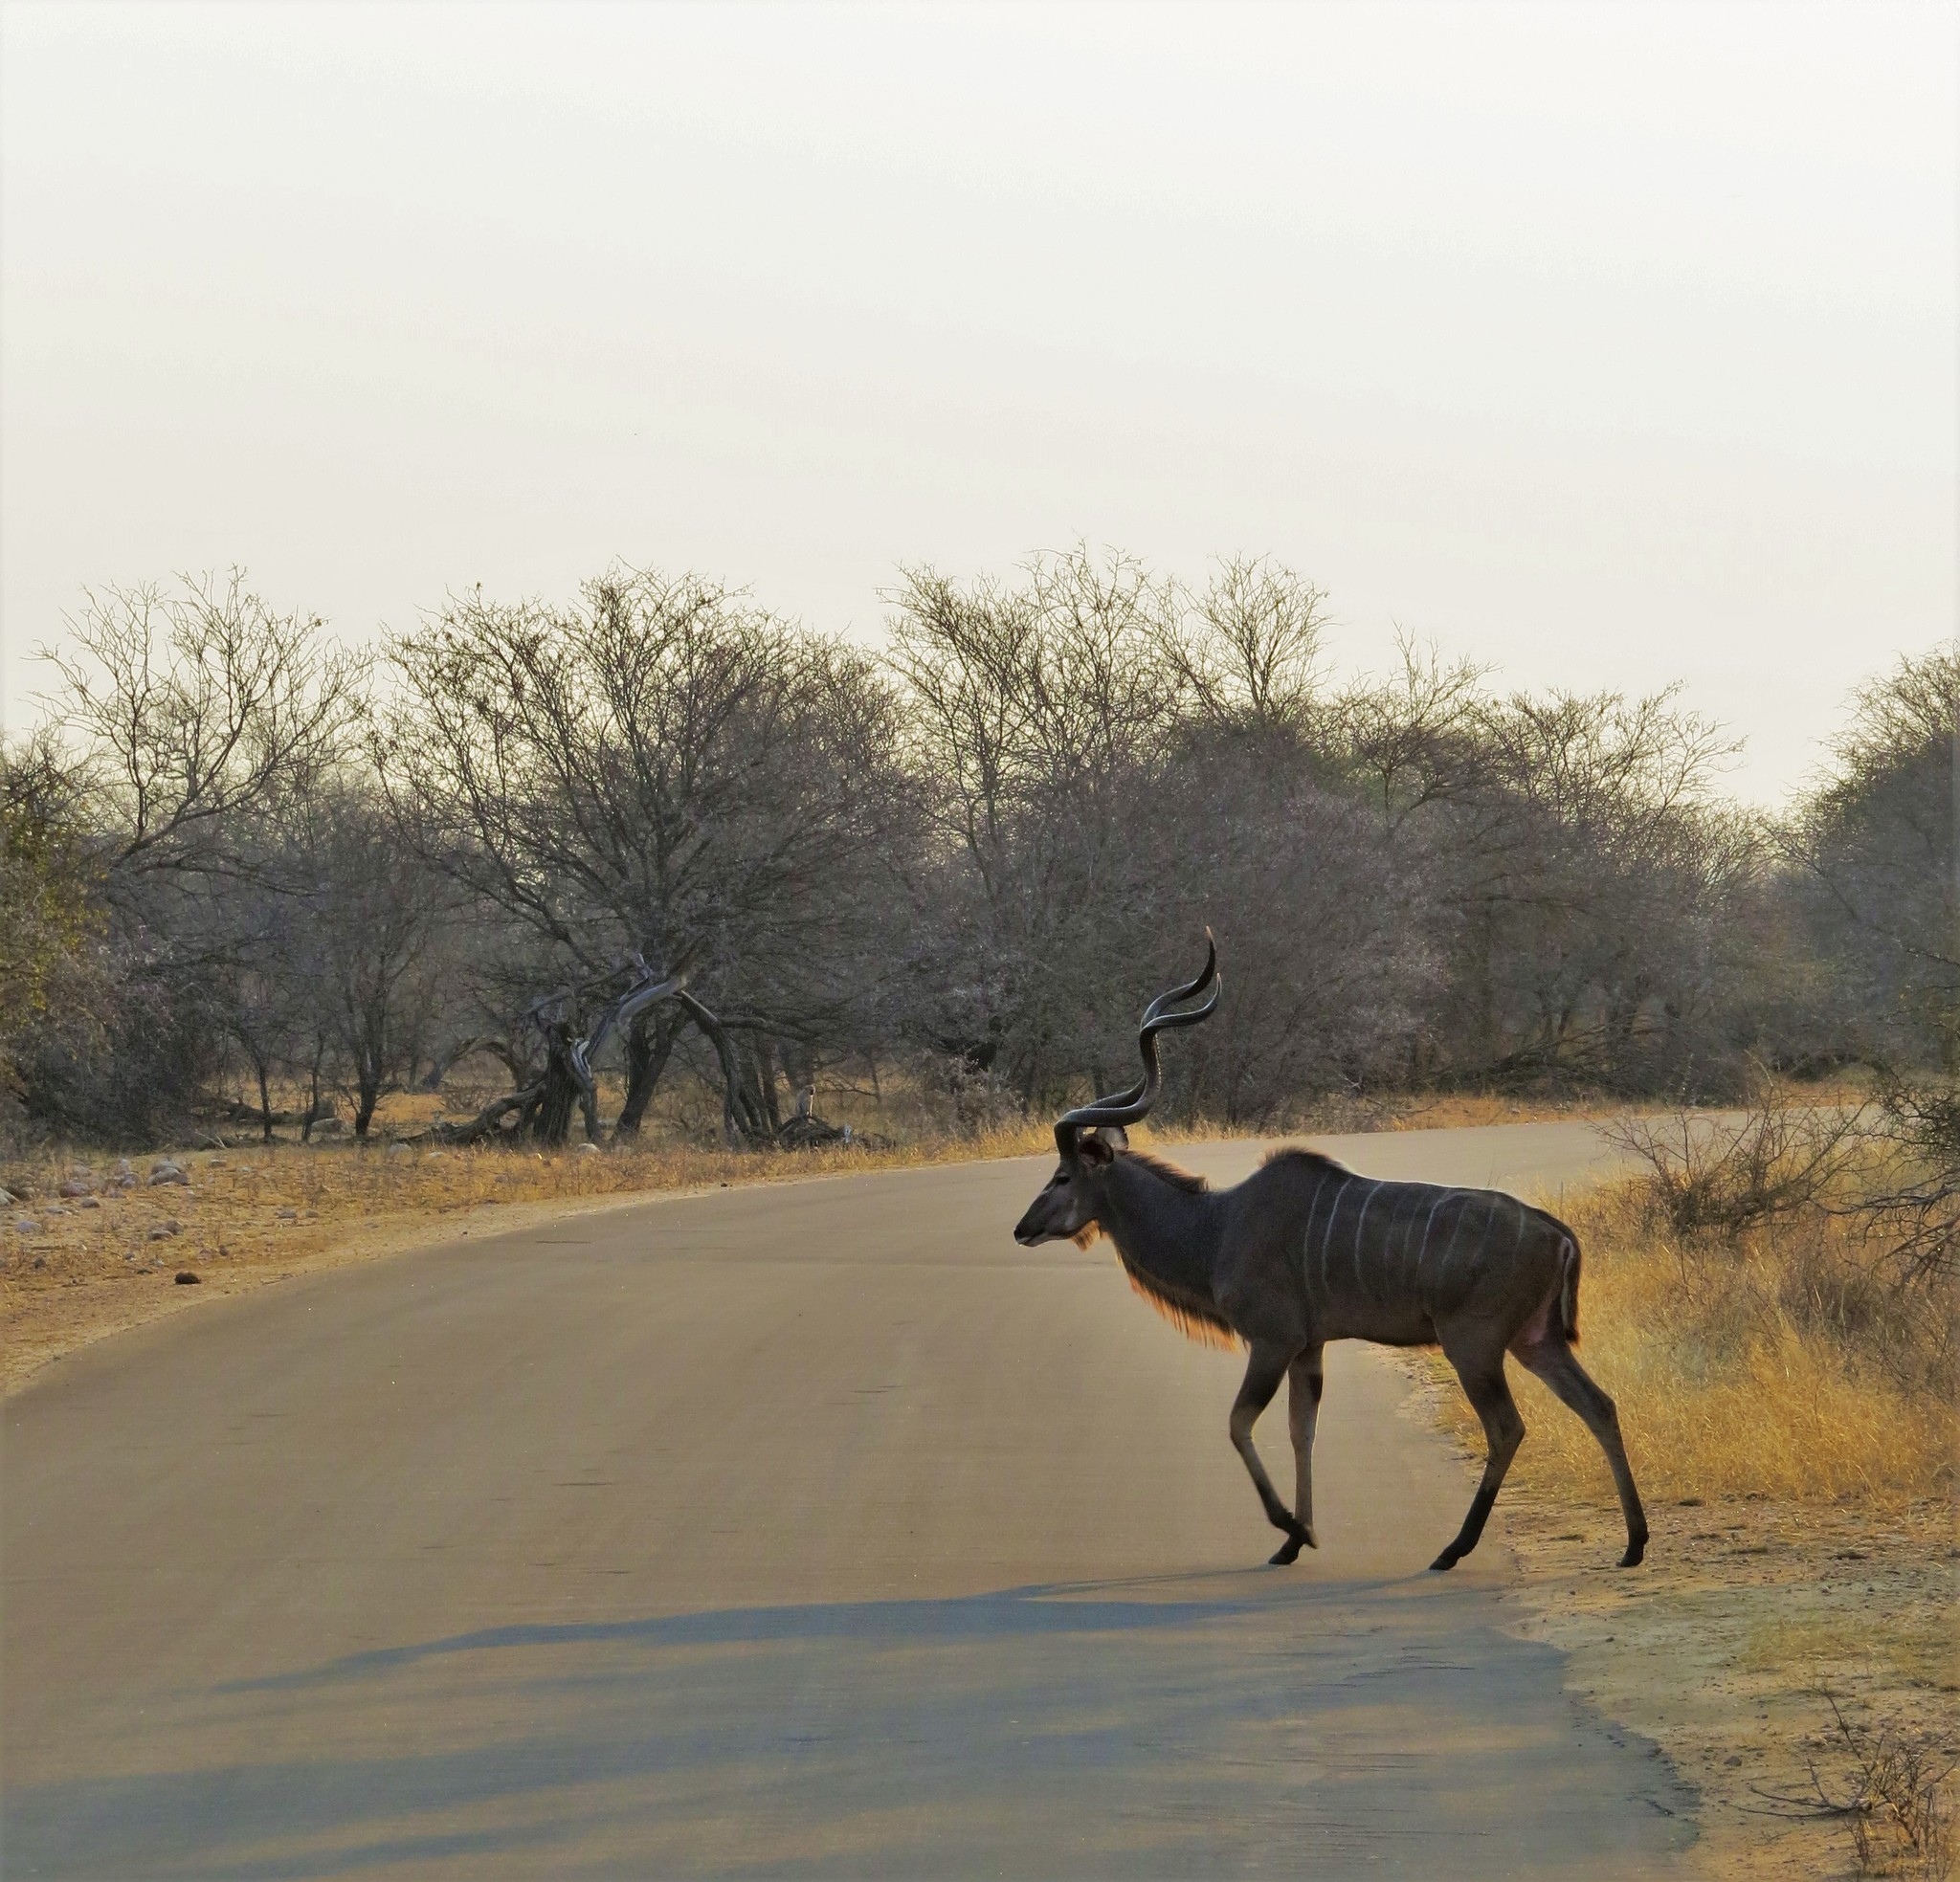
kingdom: Animalia
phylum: Chordata
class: Mammalia
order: Artiodactyla
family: Bovidae
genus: Tragelaphus
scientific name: Tragelaphus strepsiceros
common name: Greater kudu
